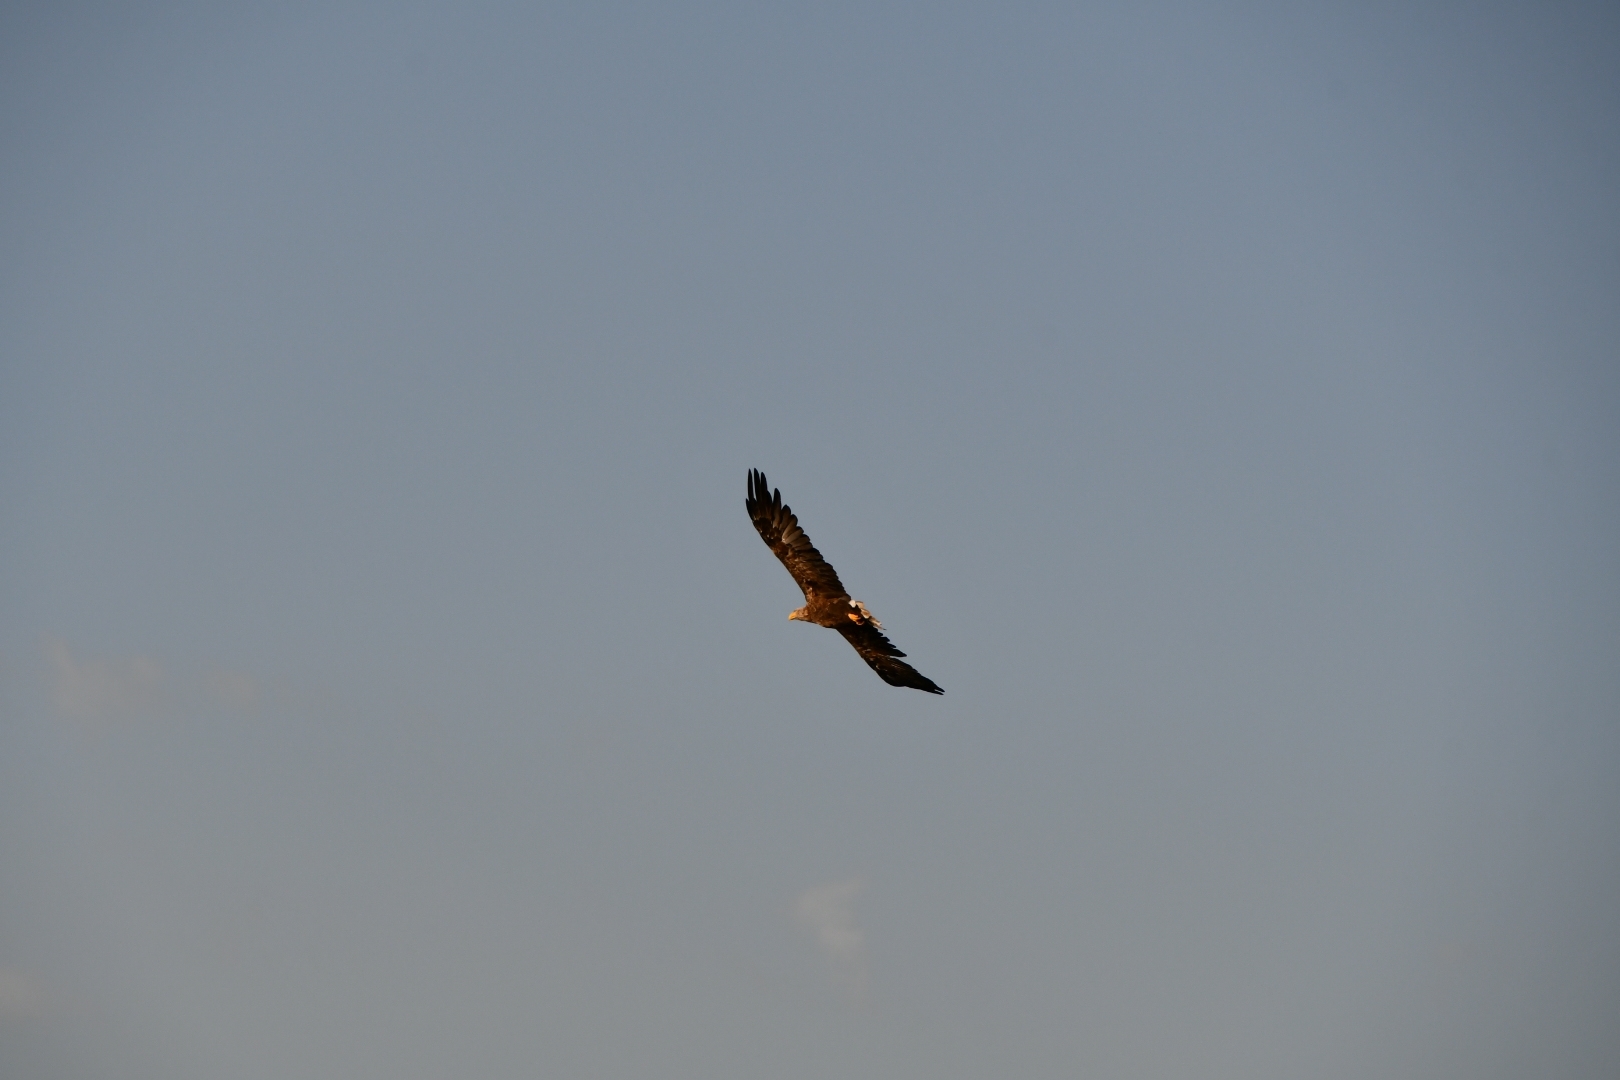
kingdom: Animalia
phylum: Chordata
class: Aves
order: Accipitriformes
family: Accipitridae
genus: Haliaeetus
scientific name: Haliaeetus albicilla
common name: White-tailed eagle
